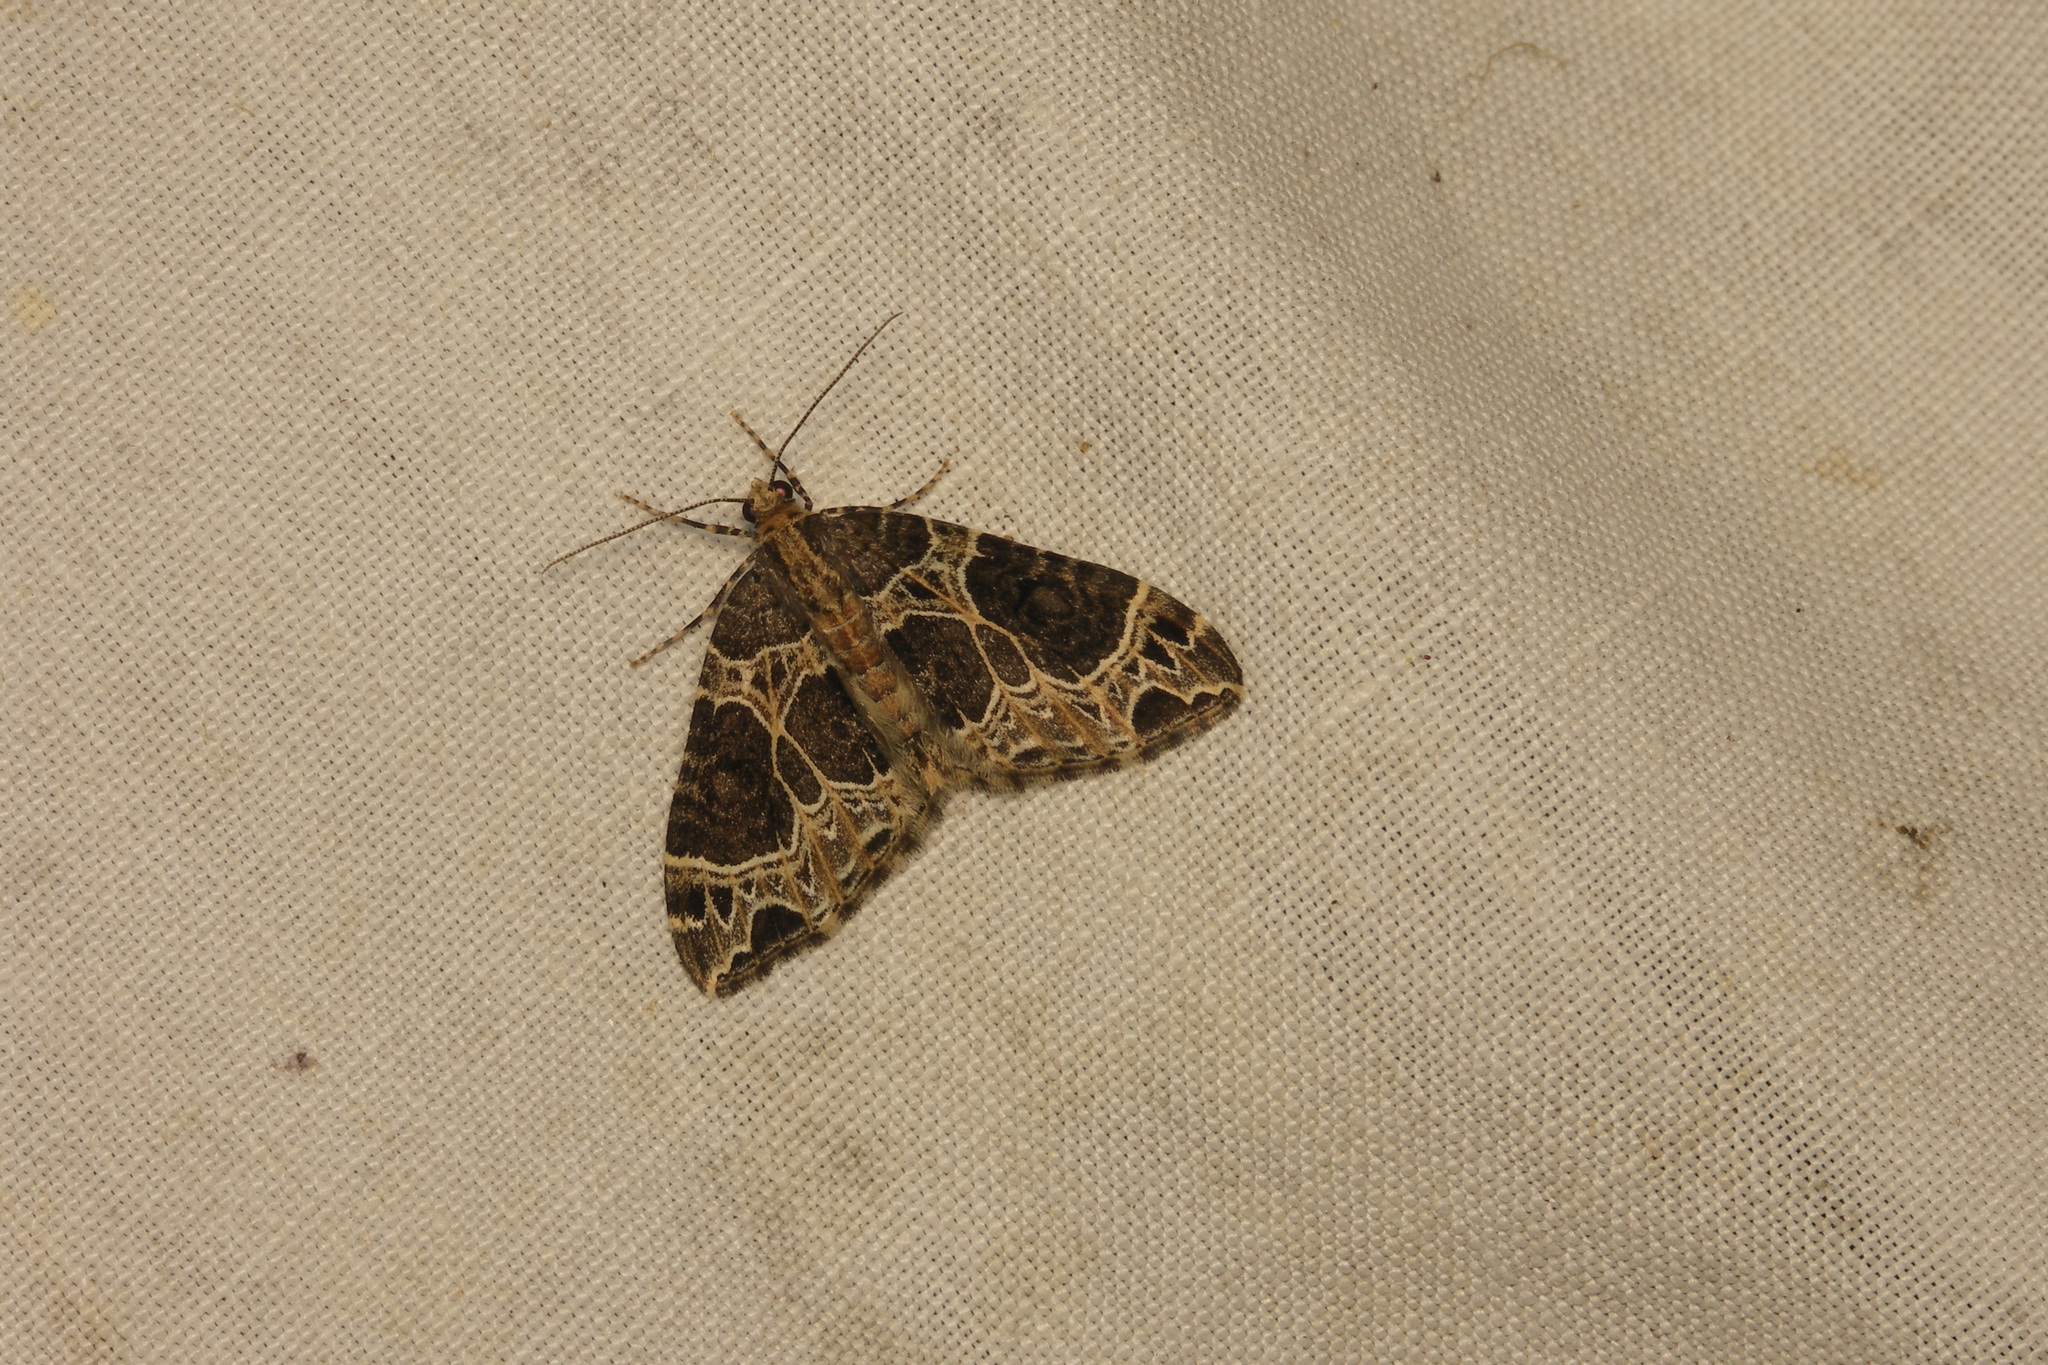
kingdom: Animalia
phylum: Arthropoda
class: Insecta
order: Lepidoptera
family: Geometridae
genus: Ecliptopera
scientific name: Ecliptopera silaceata
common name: Small phoenix
